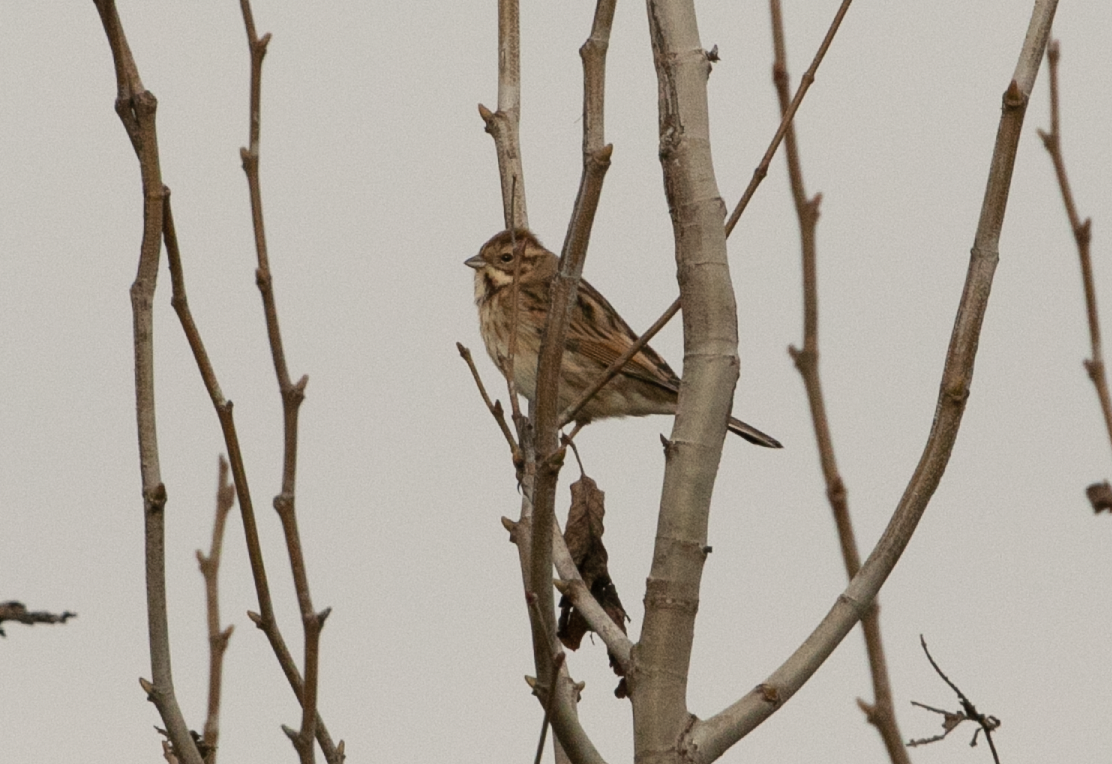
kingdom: Animalia
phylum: Chordata
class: Aves
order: Passeriformes
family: Emberizidae
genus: Emberiza
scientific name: Emberiza schoeniclus
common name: Reed bunting
